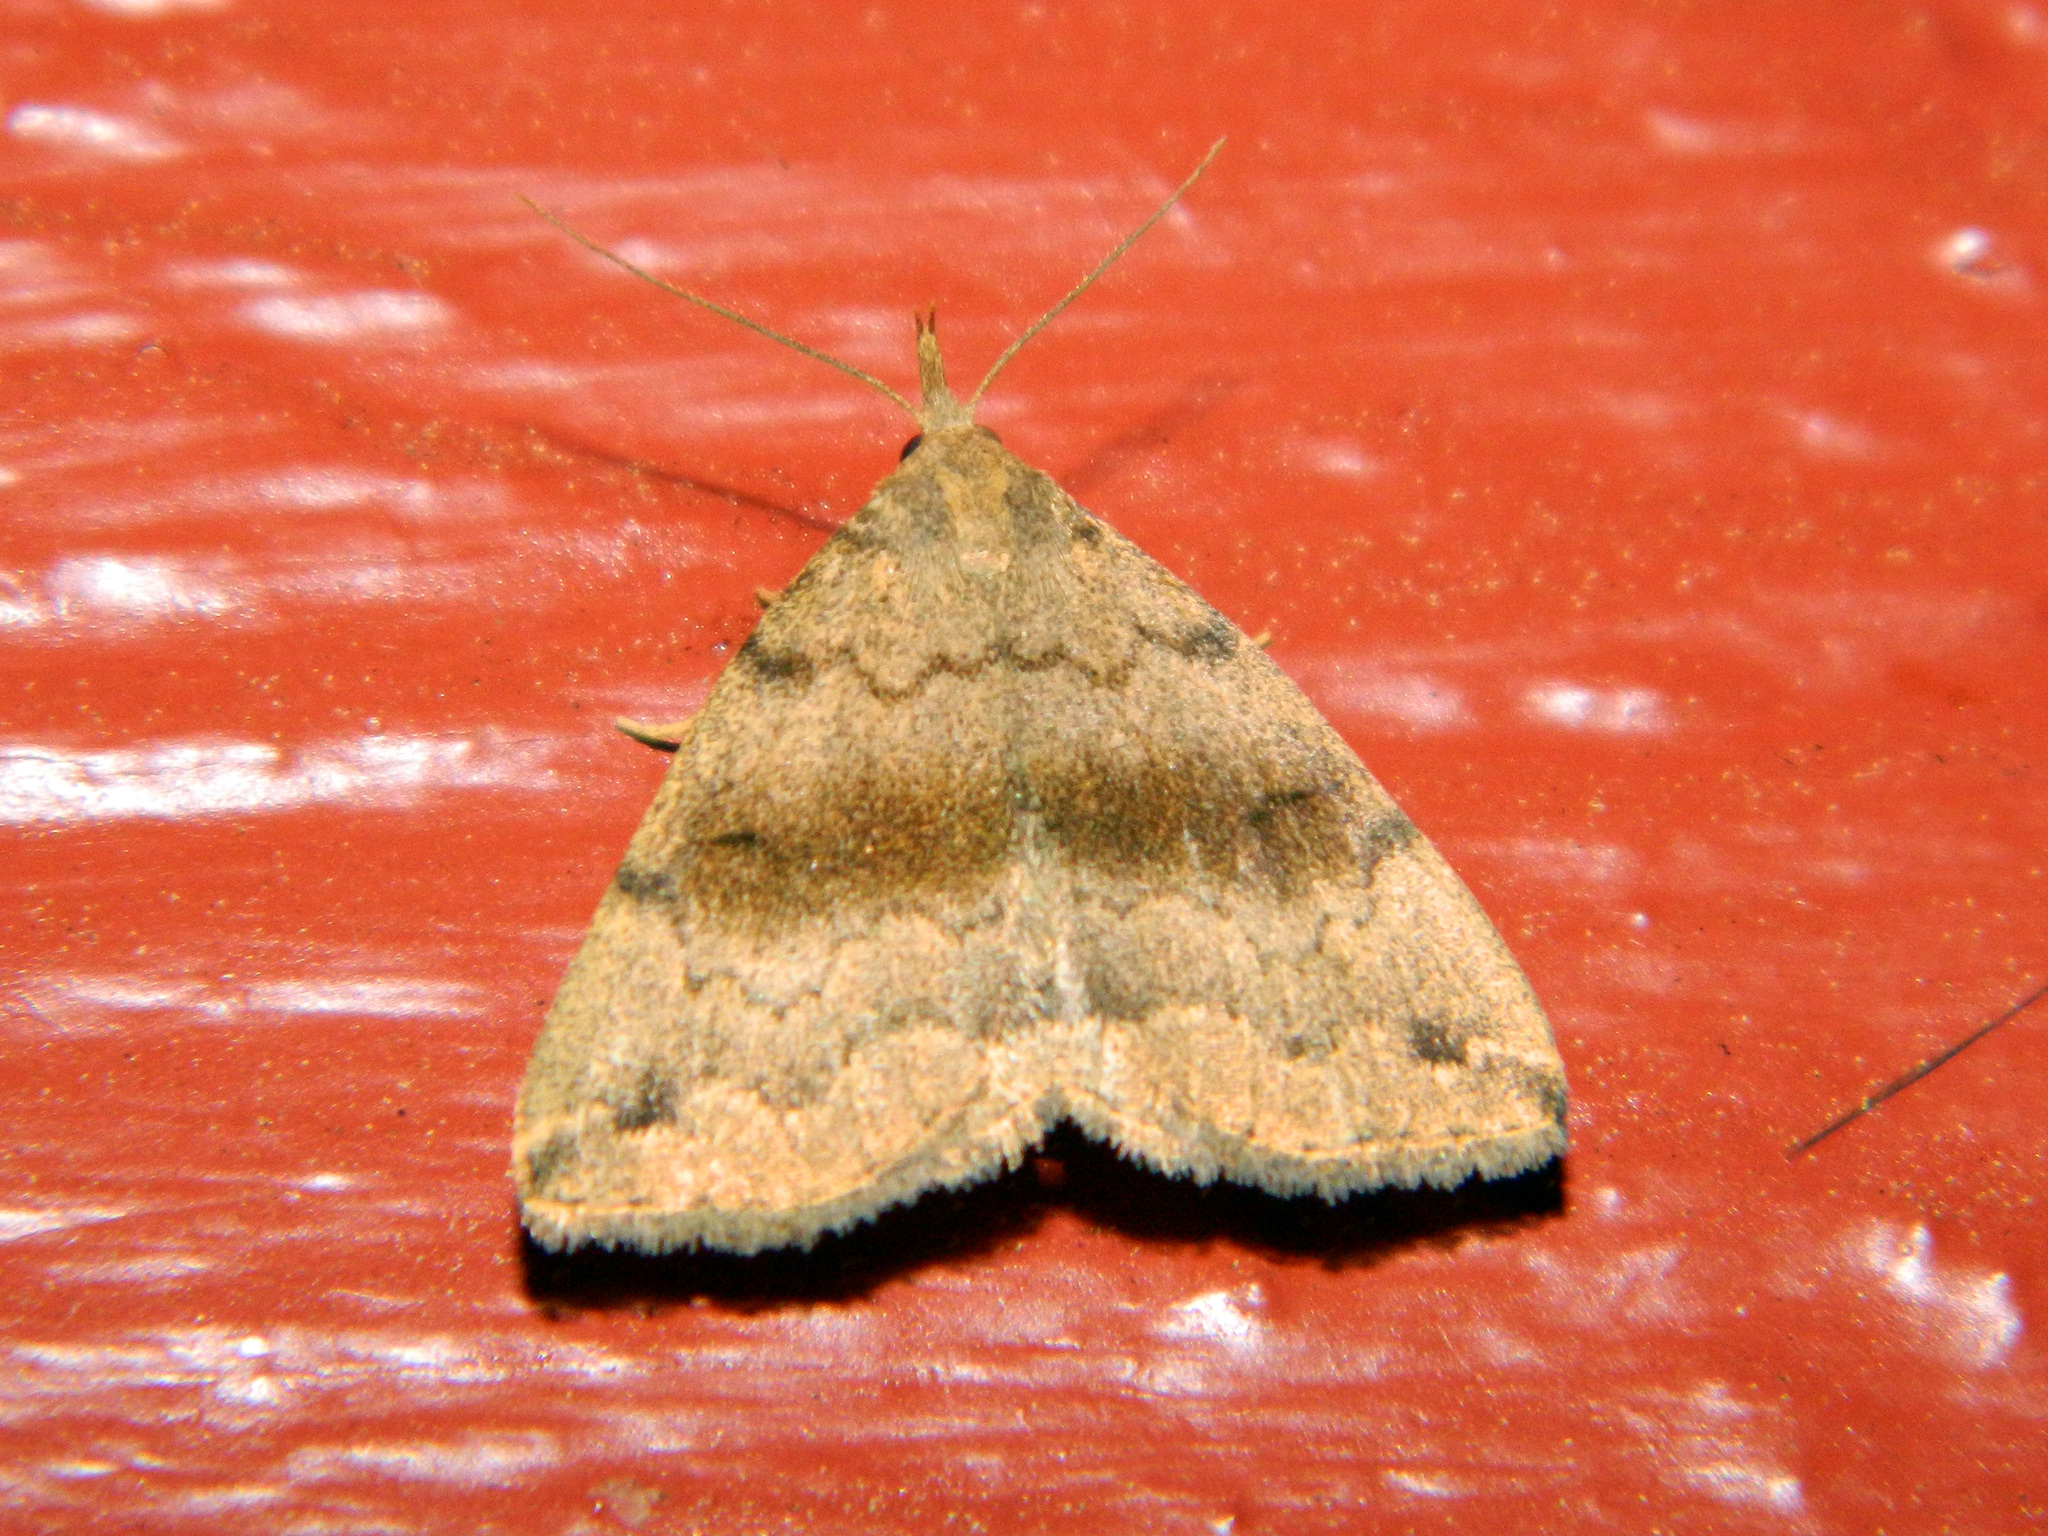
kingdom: Animalia
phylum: Arthropoda
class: Insecta
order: Lepidoptera
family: Erebidae
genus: Phalaenostola
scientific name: Phalaenostola eumelusalis
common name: Dark phalaenostola moth
